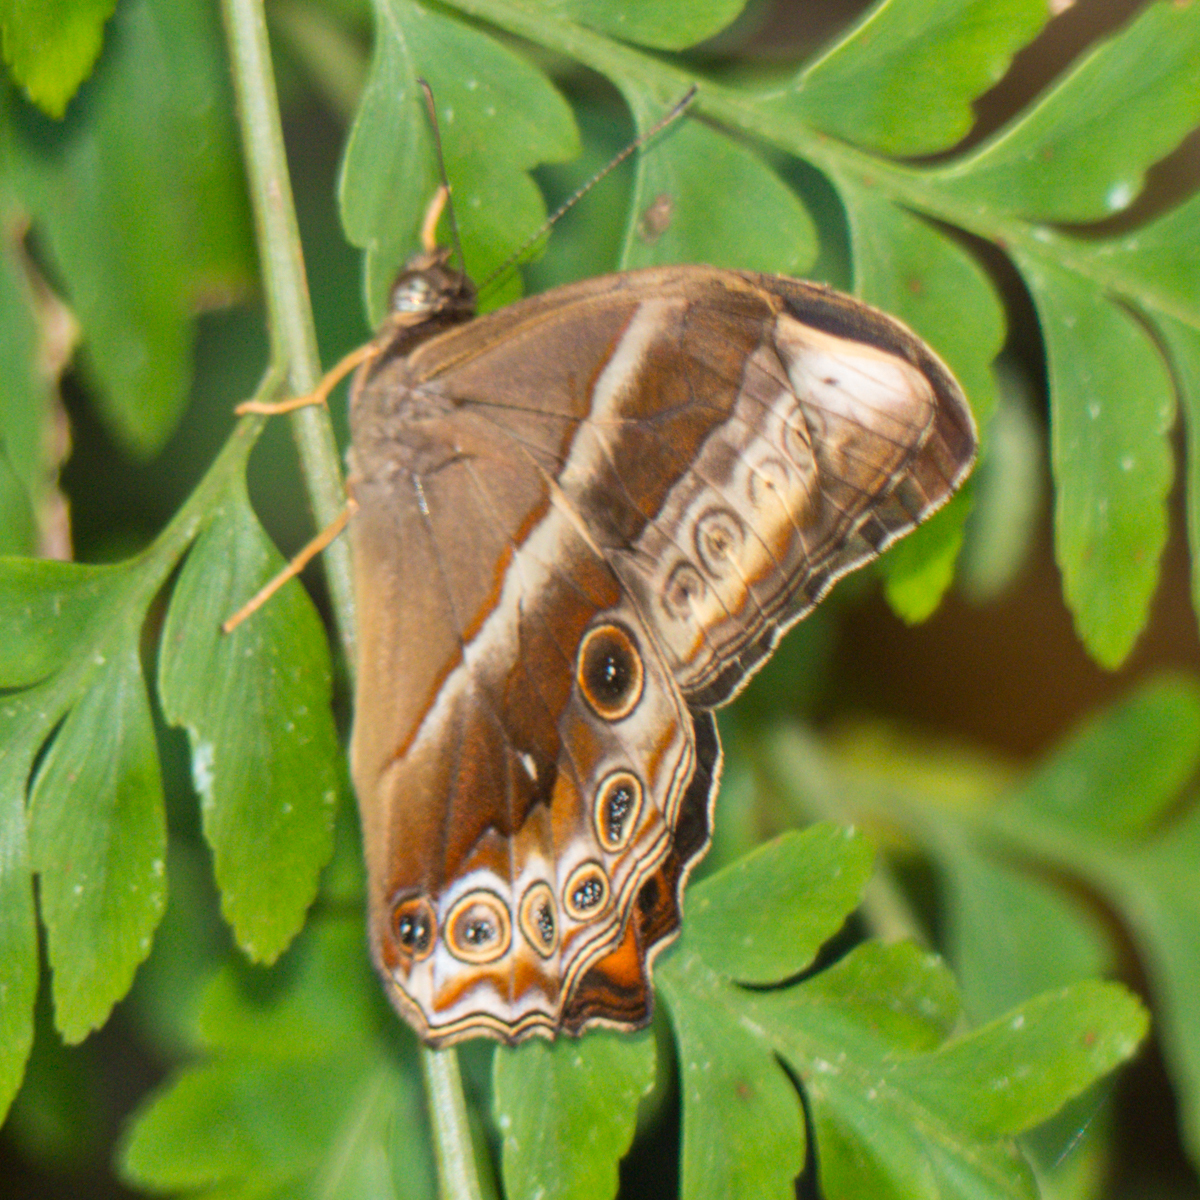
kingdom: Animalia
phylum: Arthropoda
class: Insecta
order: Lepidoptera
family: Nymphalidae
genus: Lethe
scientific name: Lethe mekara
